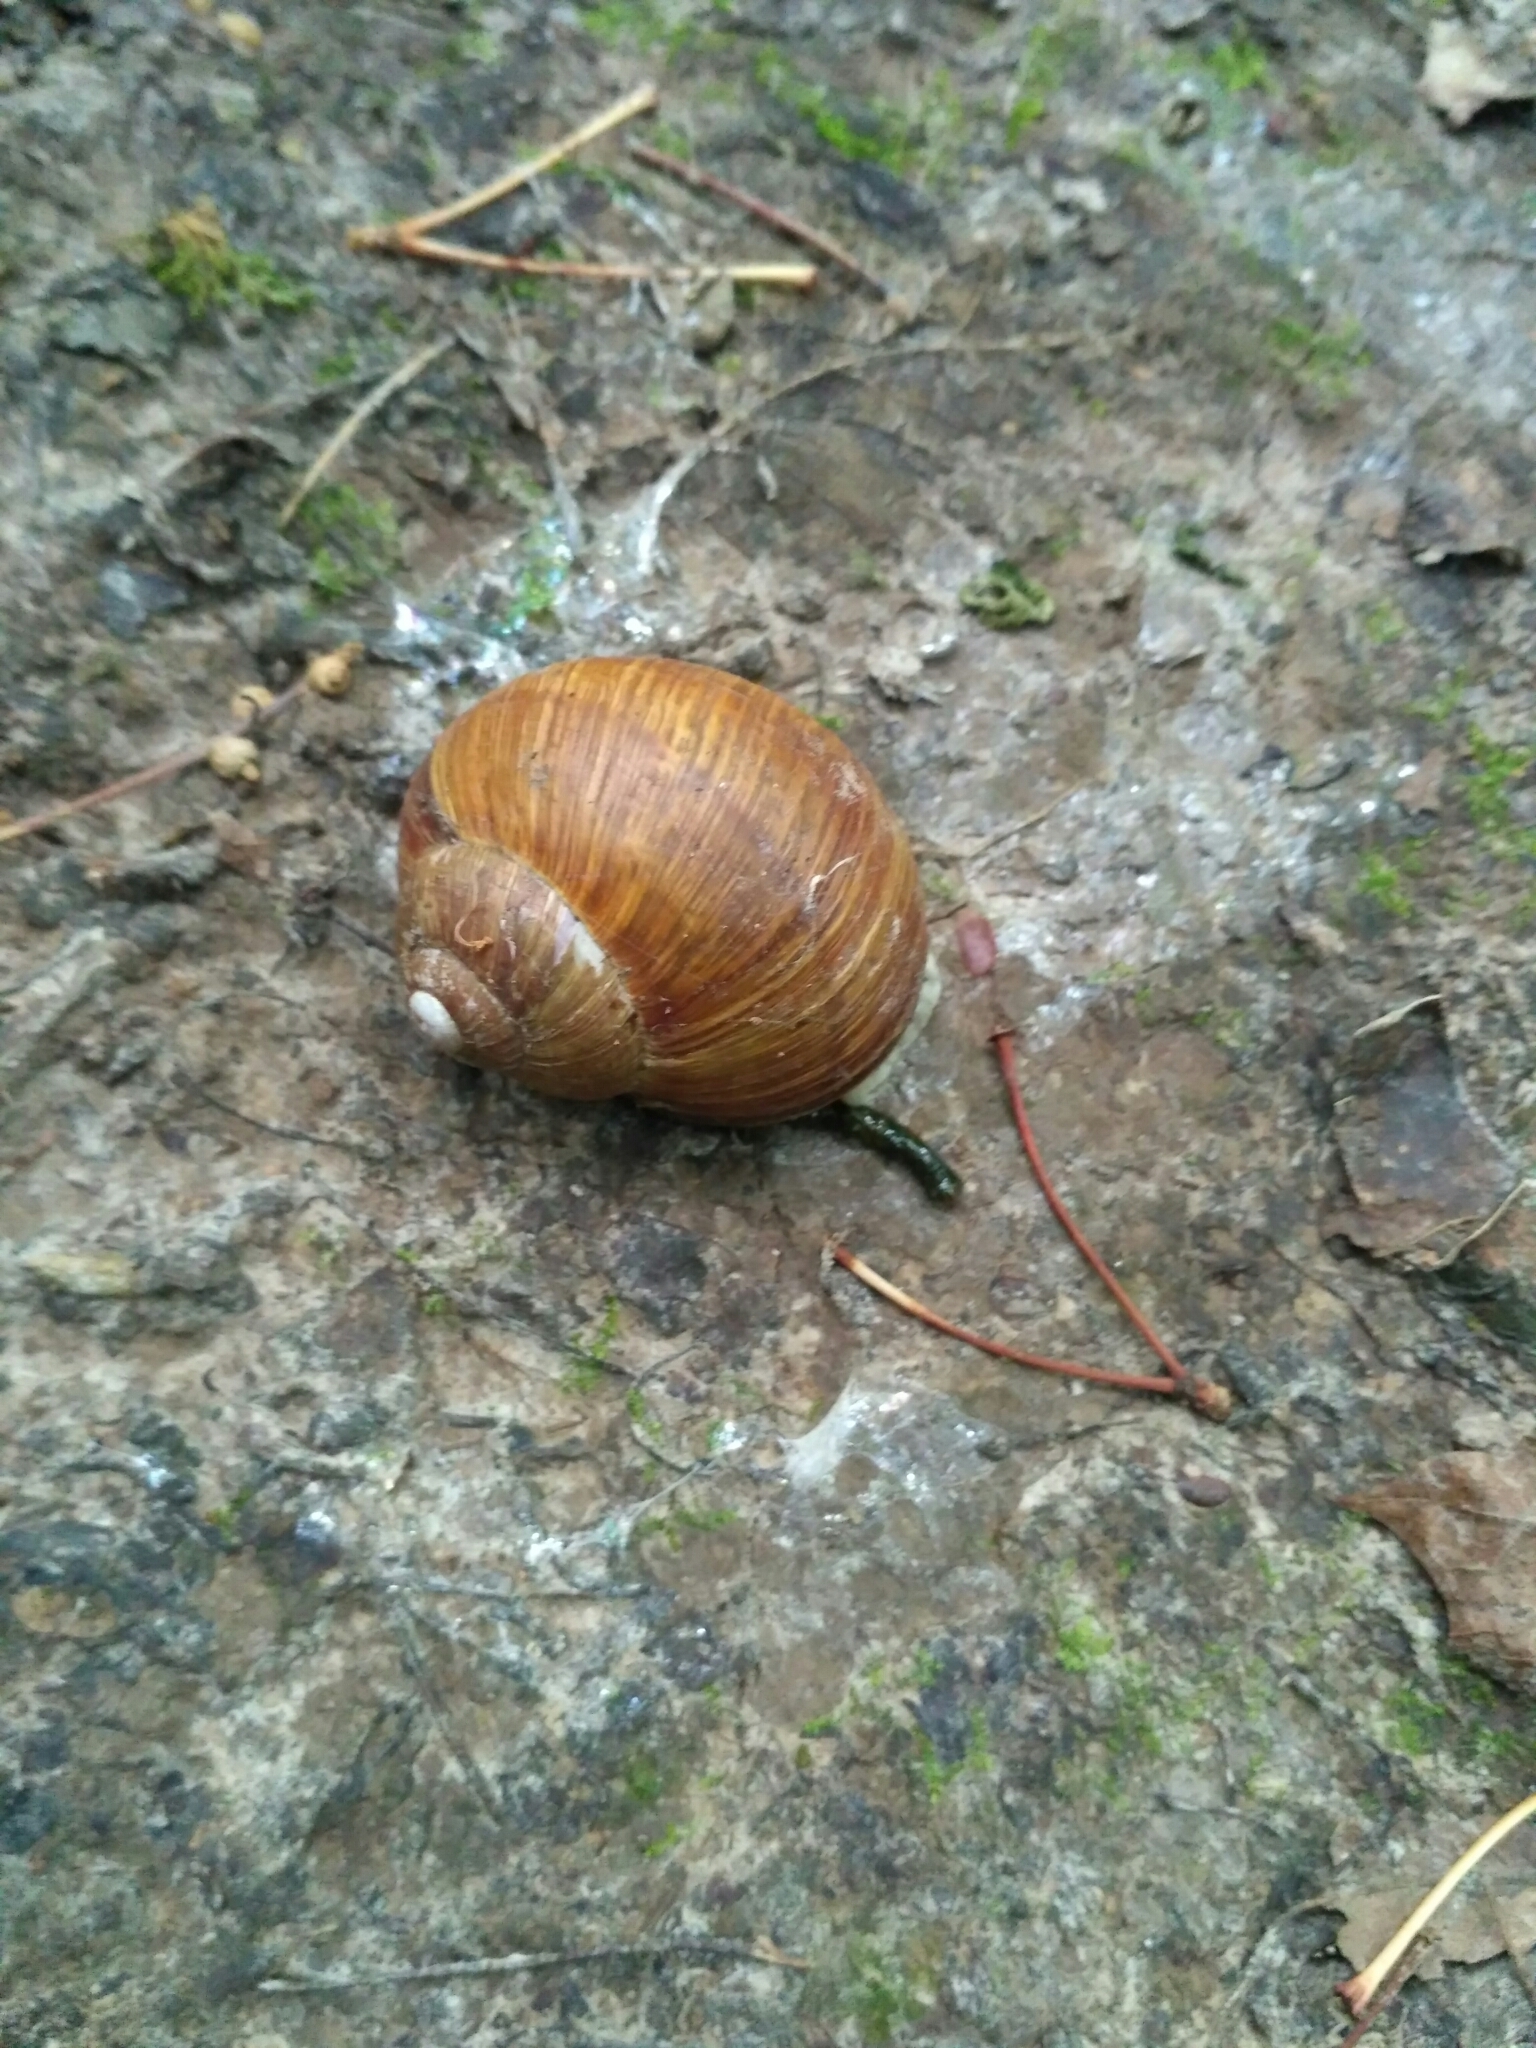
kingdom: Animalia
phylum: Mollusca
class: Gastropoda
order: Stylommatophora
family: Helicidae
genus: Helix
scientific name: Helix pomatia
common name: Roman snail
